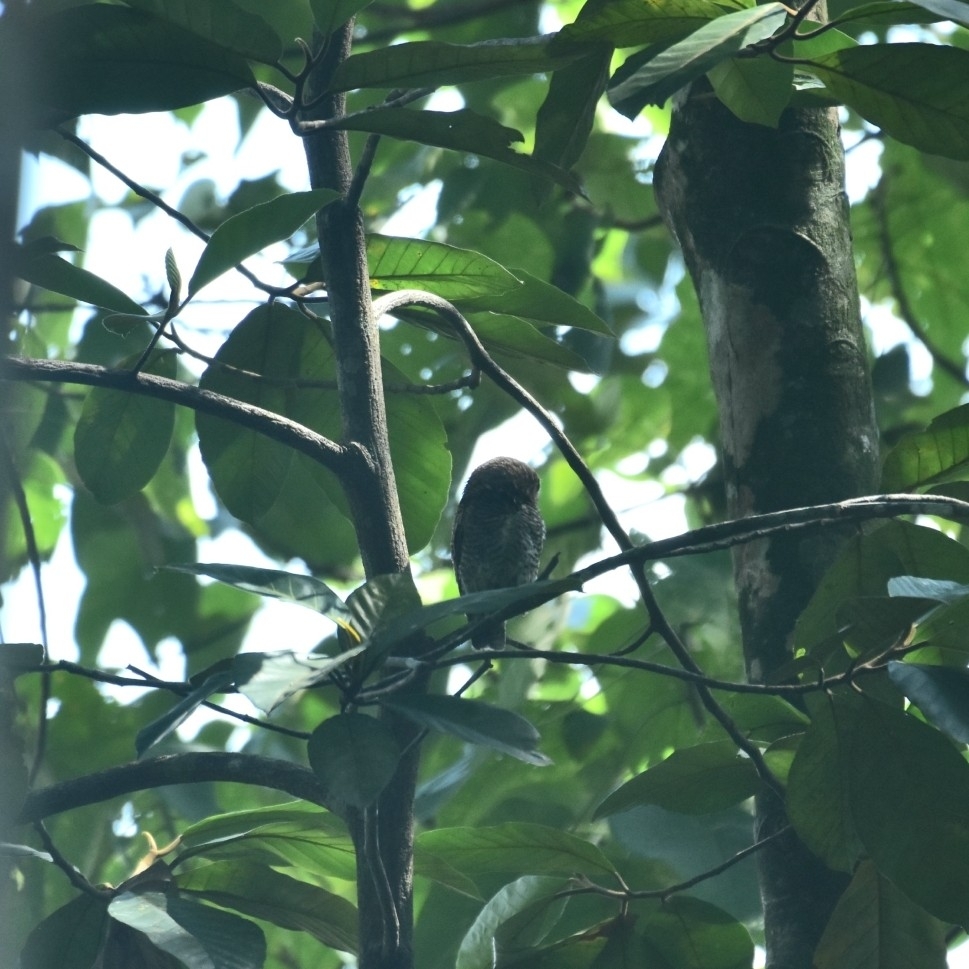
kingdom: Animalia
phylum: Chordata
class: Aves
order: Strigiformes
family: Strigidae
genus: Glaucidium
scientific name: Glaucidium radiatum
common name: Jungle owlet
